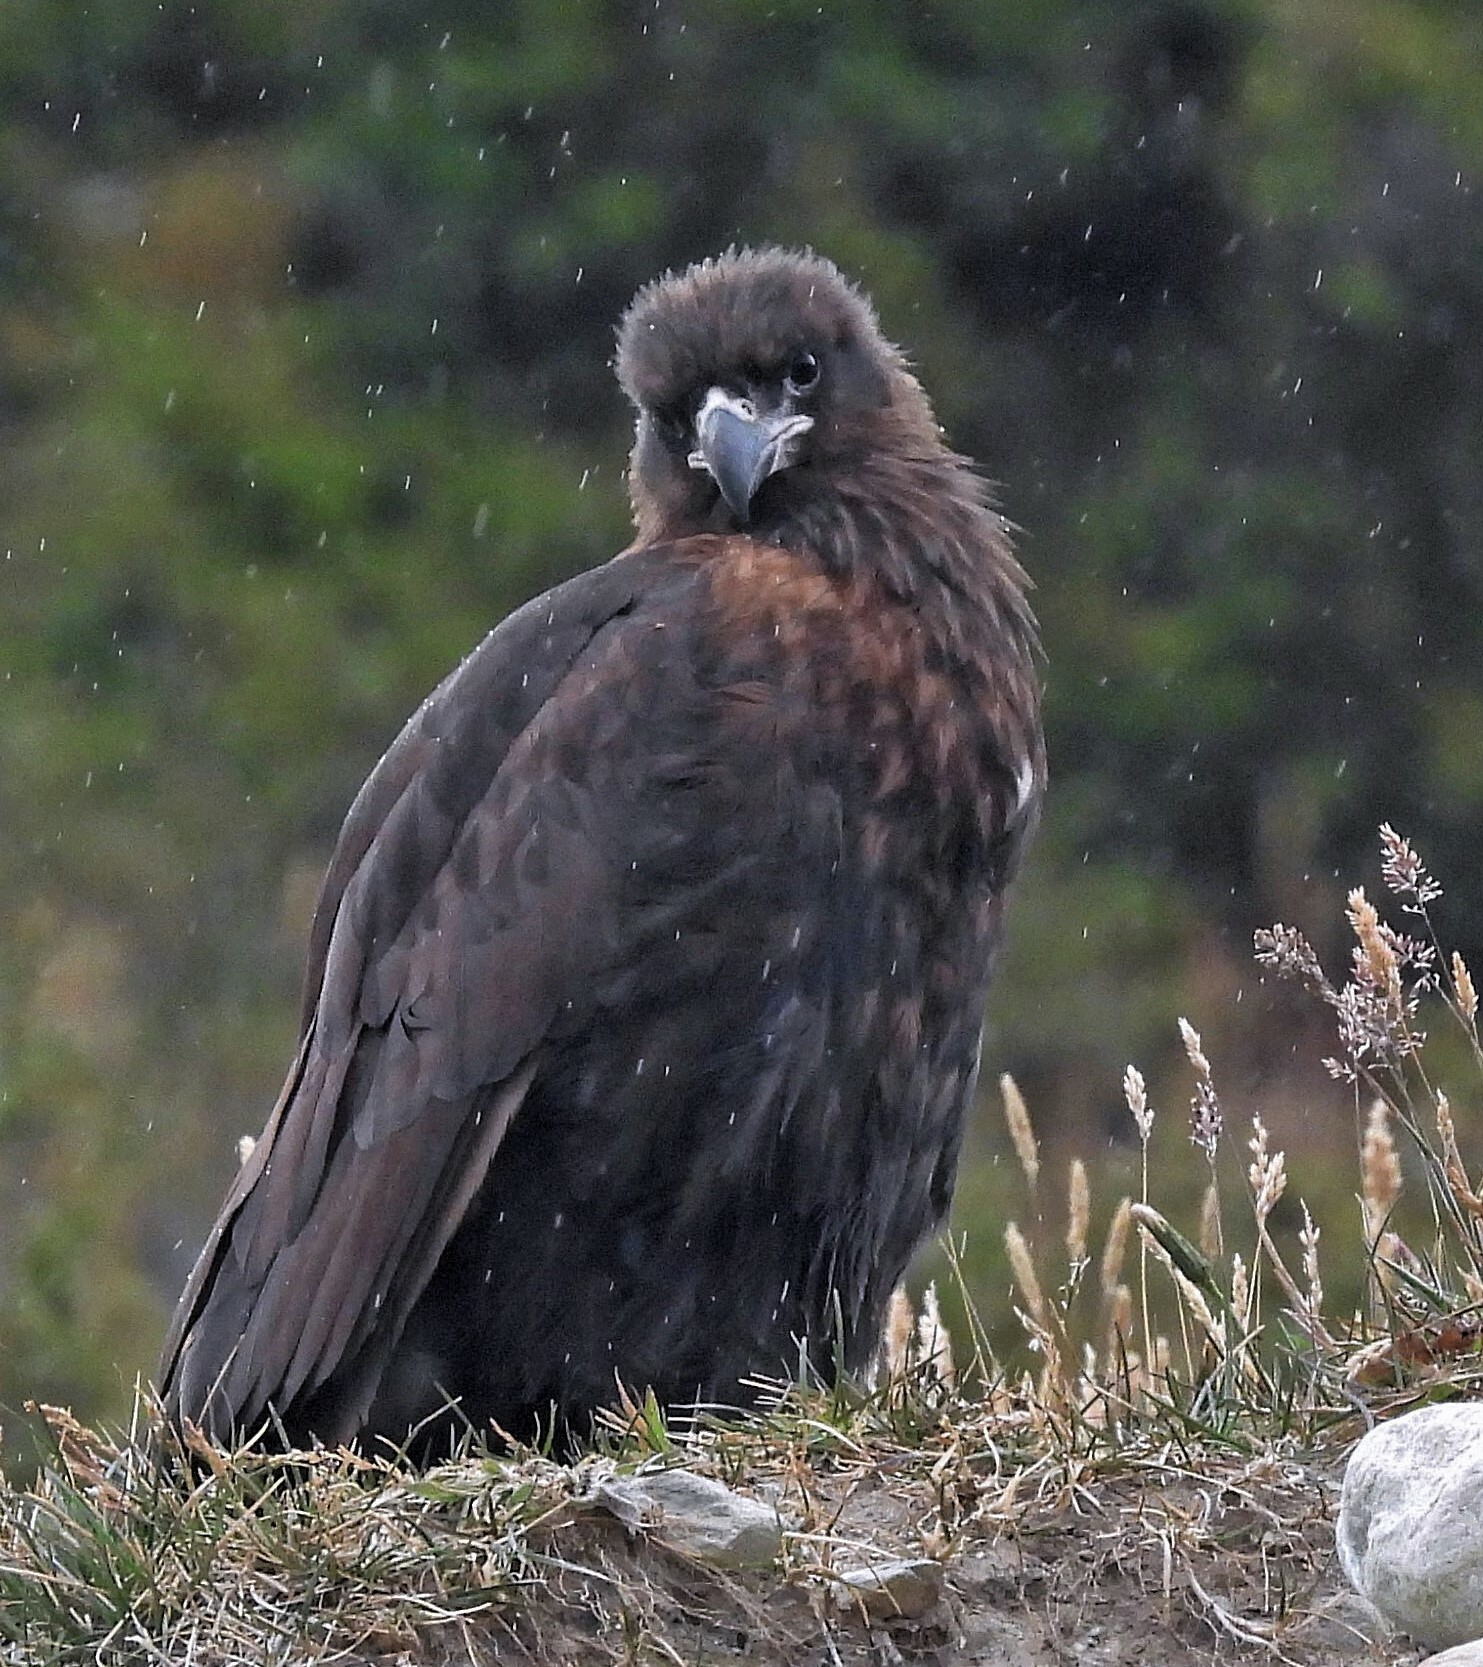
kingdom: Animalia
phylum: Chordata
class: Aves
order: Falconiformes
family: Falconidae
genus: Daptrius
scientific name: Daptrius
